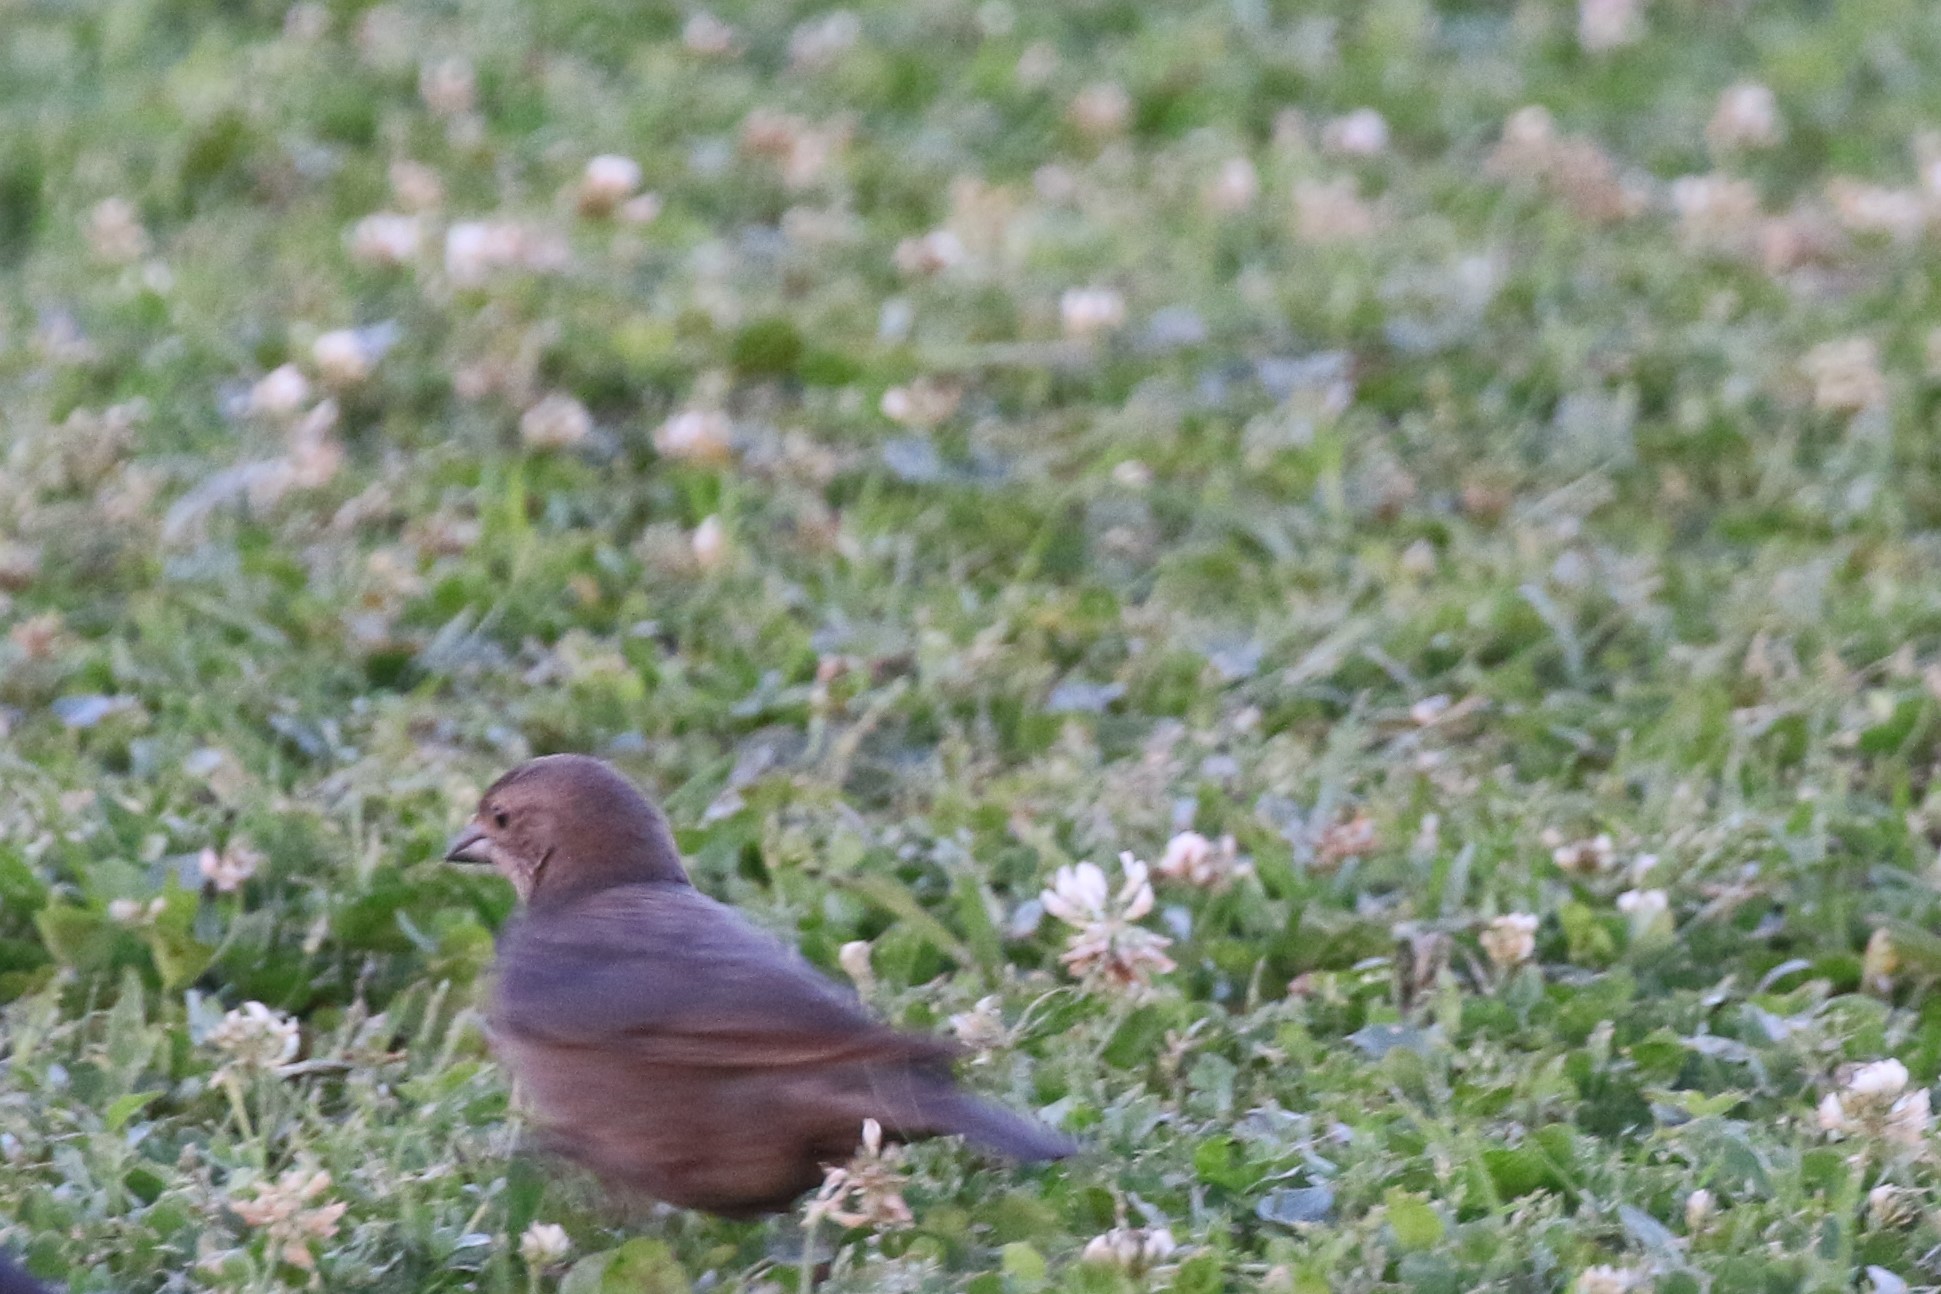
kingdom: Animalia
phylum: Chordata
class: Aves
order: Passeriformes
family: Icteridae
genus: Molothrus
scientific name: Molothrus ater
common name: Brown-headed cowbird
